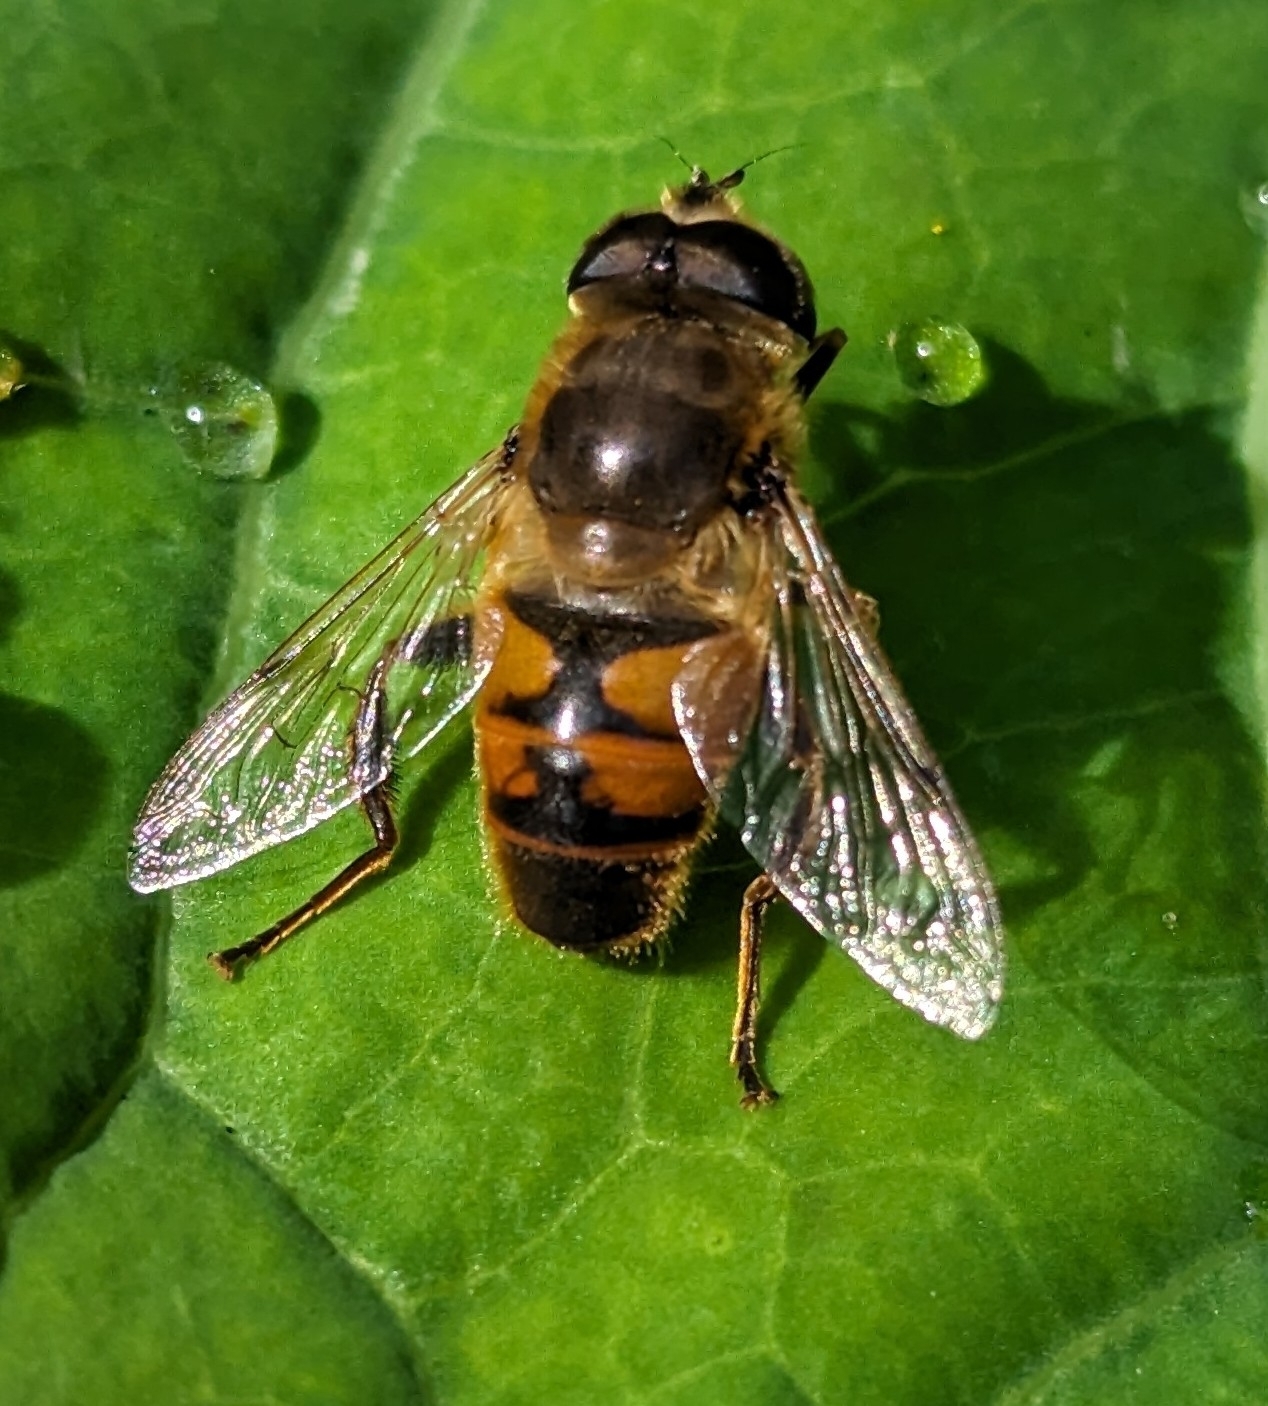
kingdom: Animalia
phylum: Arthropoda
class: Insecta
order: Diptera
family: Syrphidae
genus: Eristalis
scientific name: Eristalis tenax
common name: Drone fly
